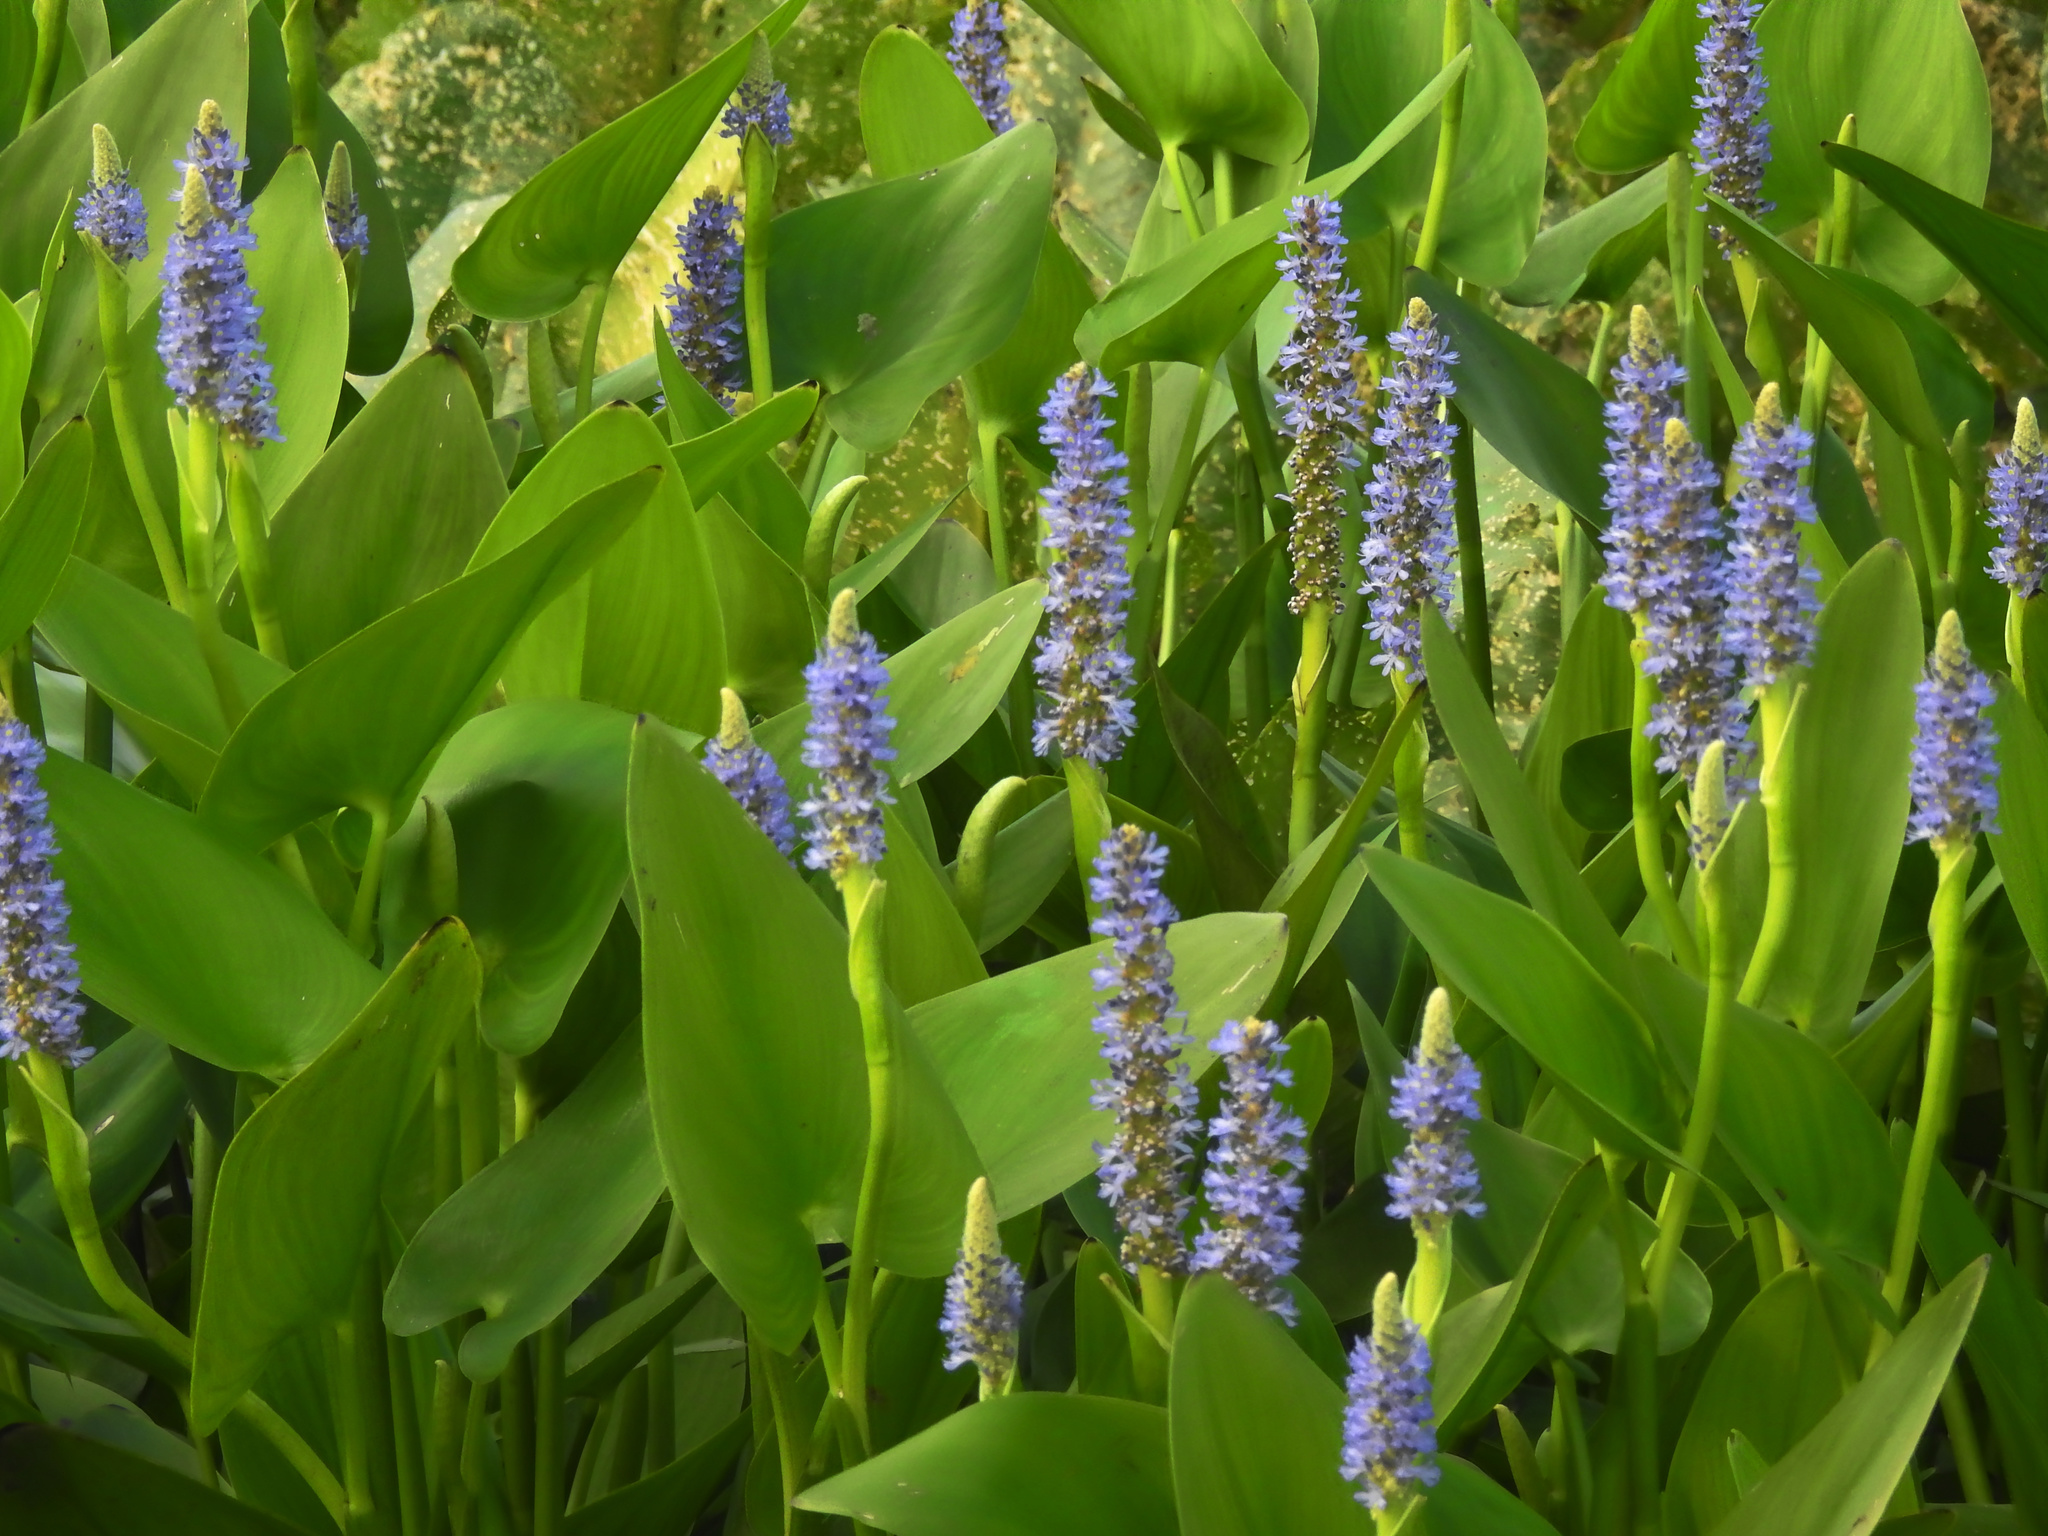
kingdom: Plantae
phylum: Tracheophyta
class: Liliopsida
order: Commelinales
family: Pontederiaceae
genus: Pontederia
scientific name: Pontederia cordata
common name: Pickerelweed
